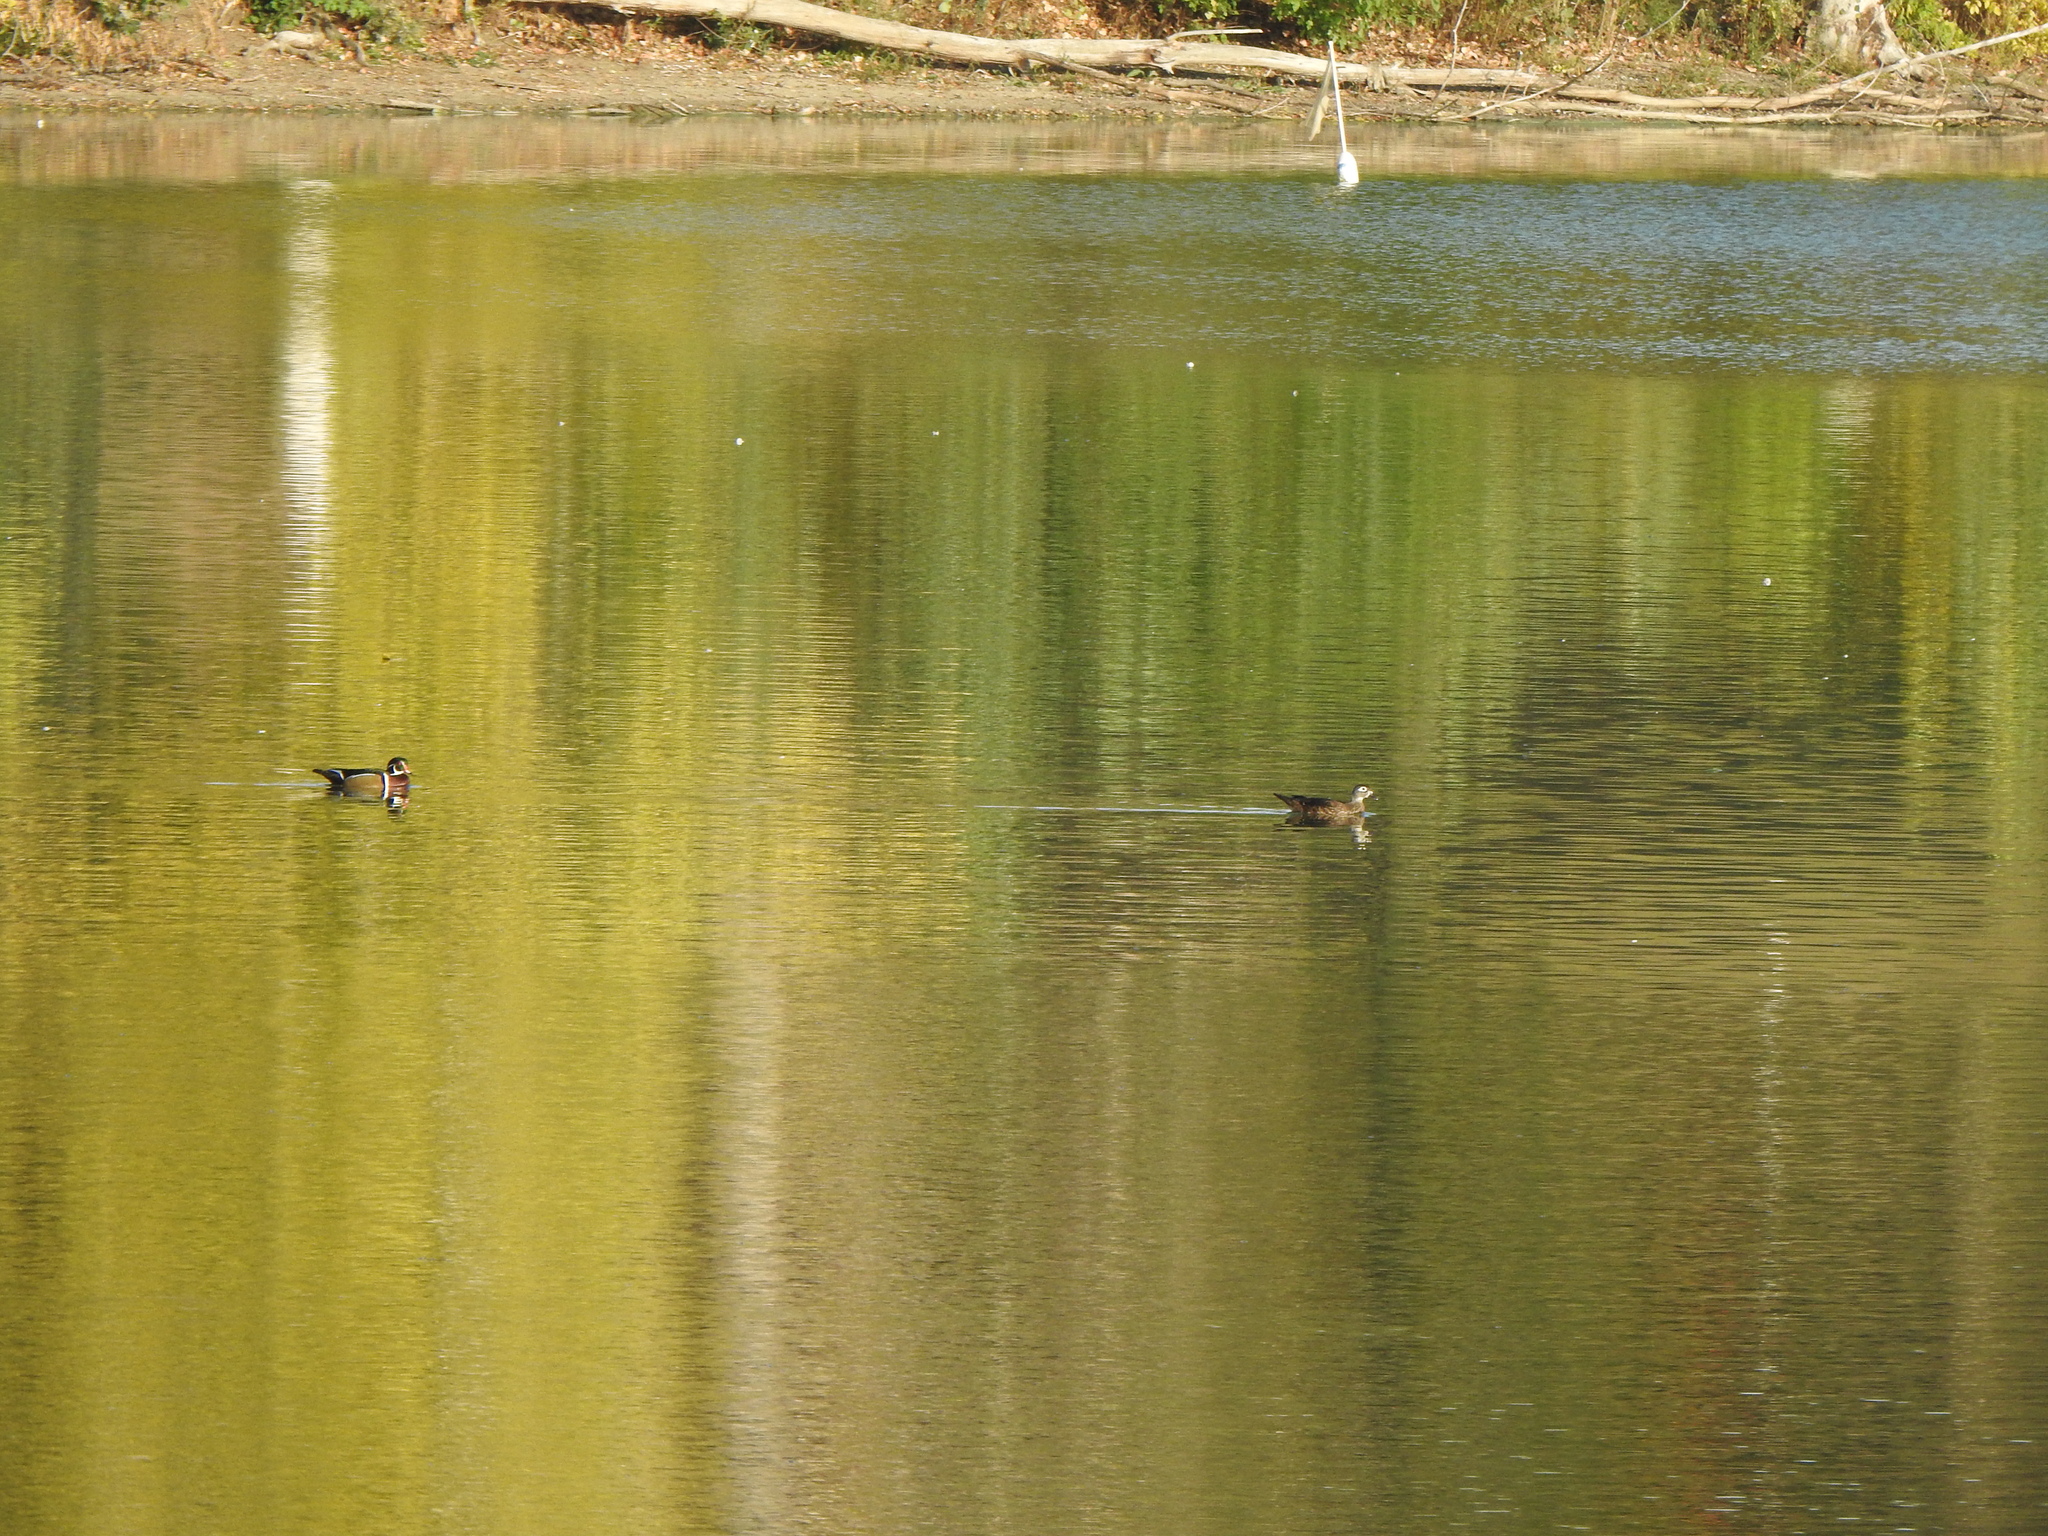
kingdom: Animalia
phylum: Chordata
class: Aves
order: Anseriformes
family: Anatidae
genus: Aix
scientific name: Aix sponsa
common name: Wood duck
